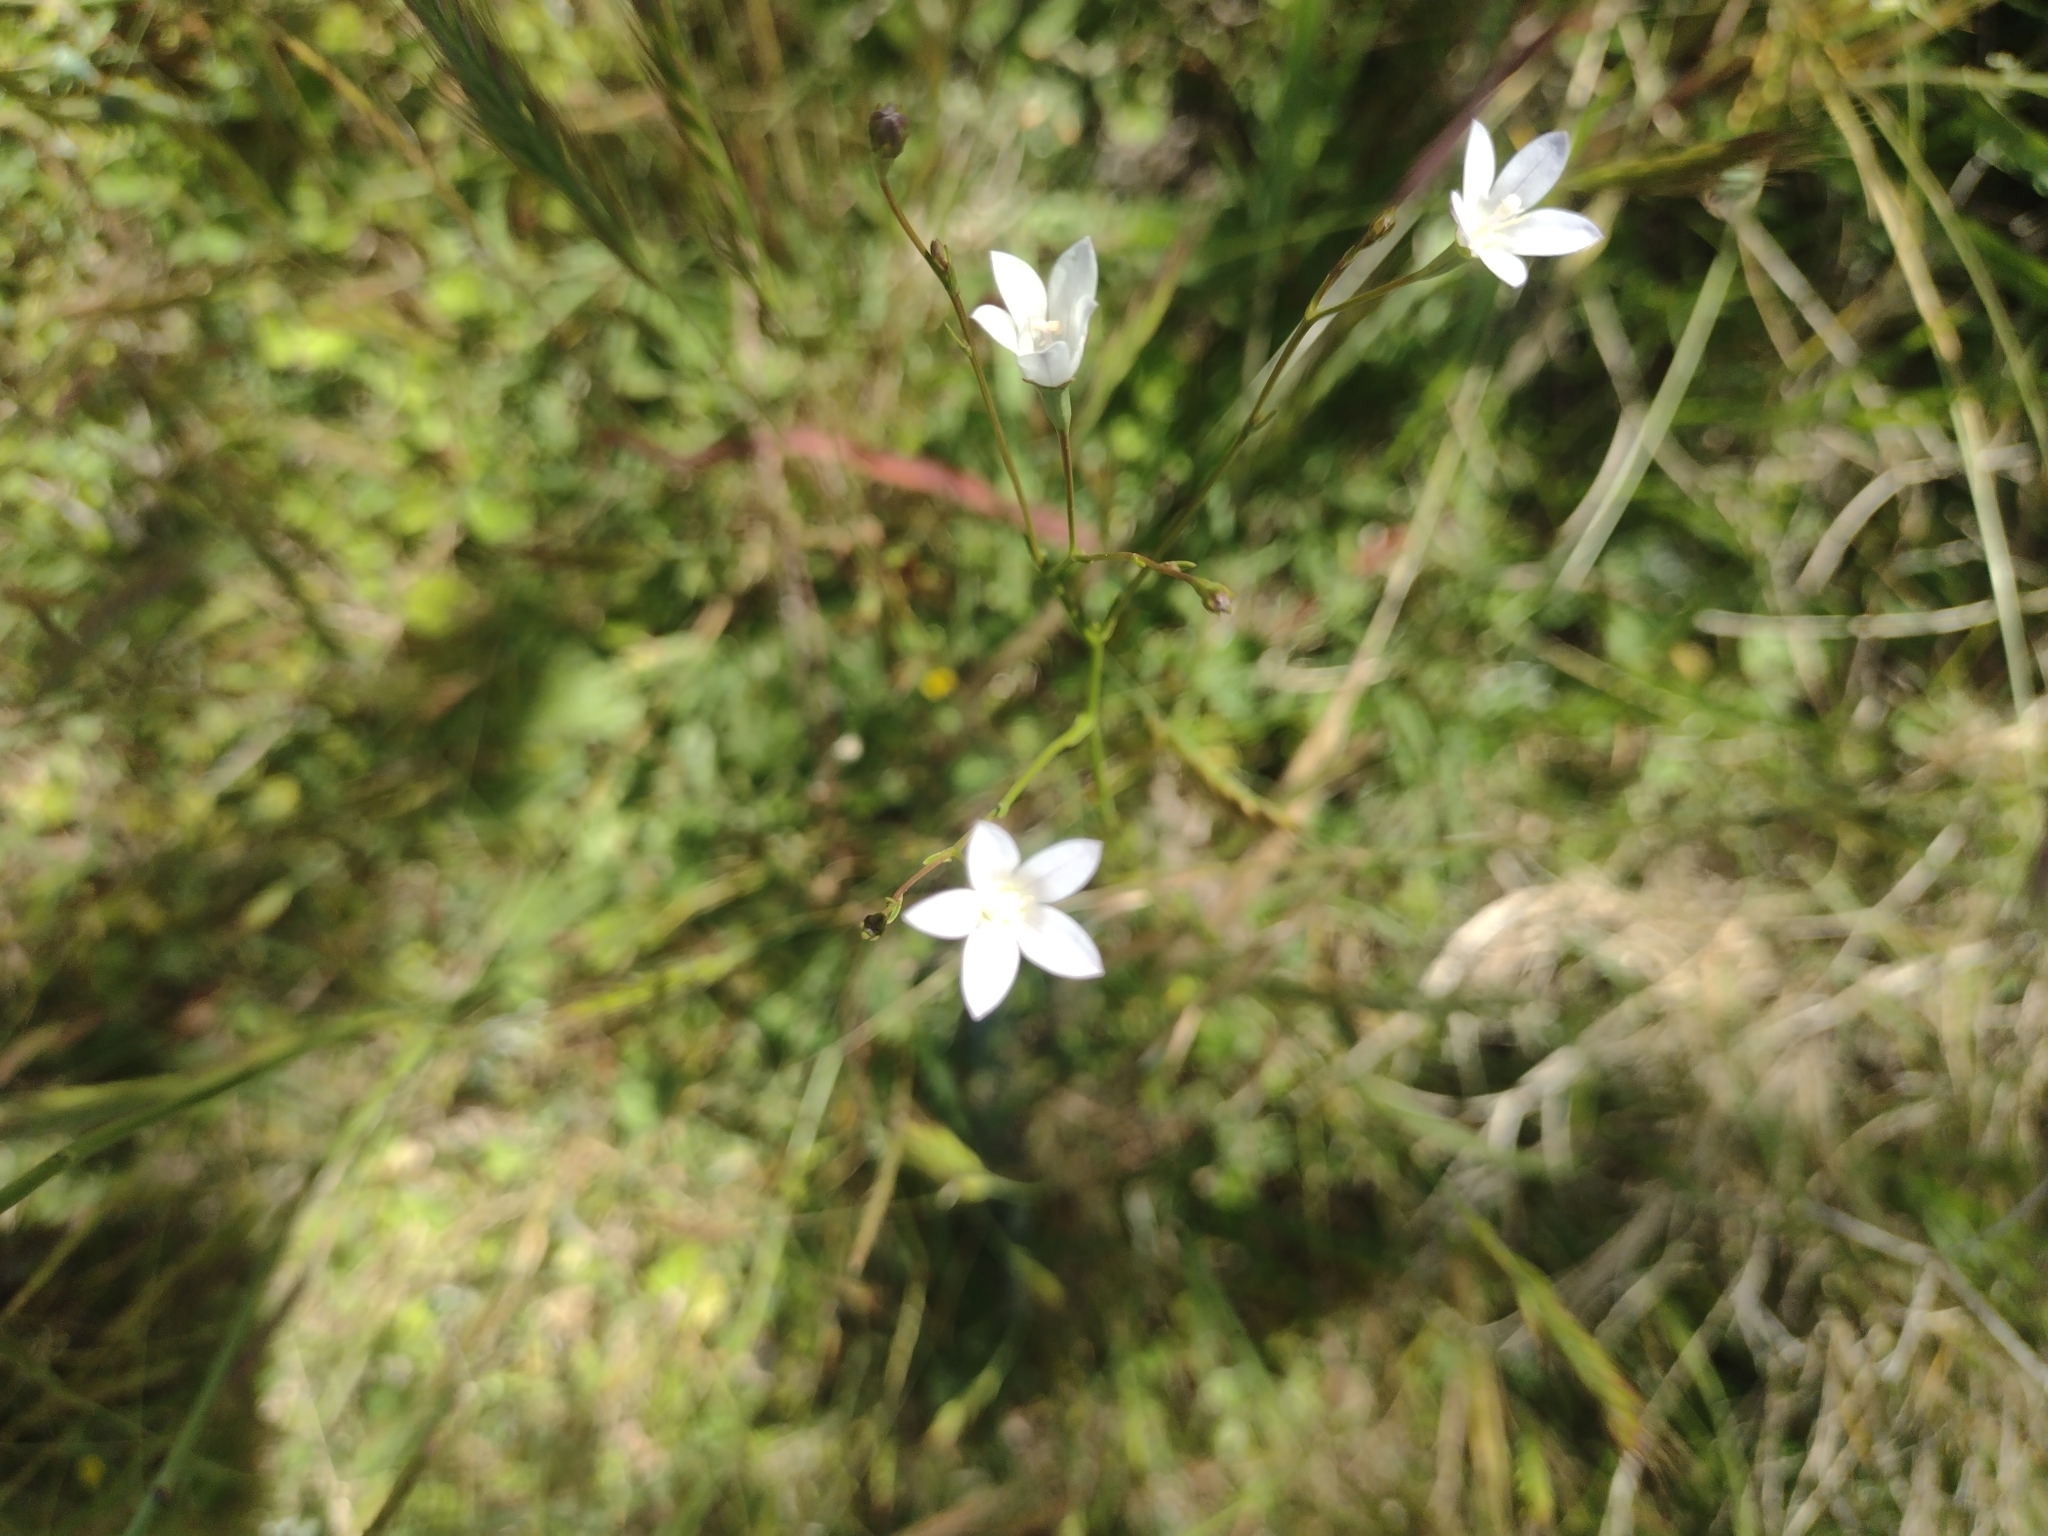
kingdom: Plantae
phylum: Tracheophyta
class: Magnoliopsida
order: Asterales
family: Campanulaceae
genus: Wahlenbergia
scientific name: Wahlenbergia linarioides
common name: Tuffybells
